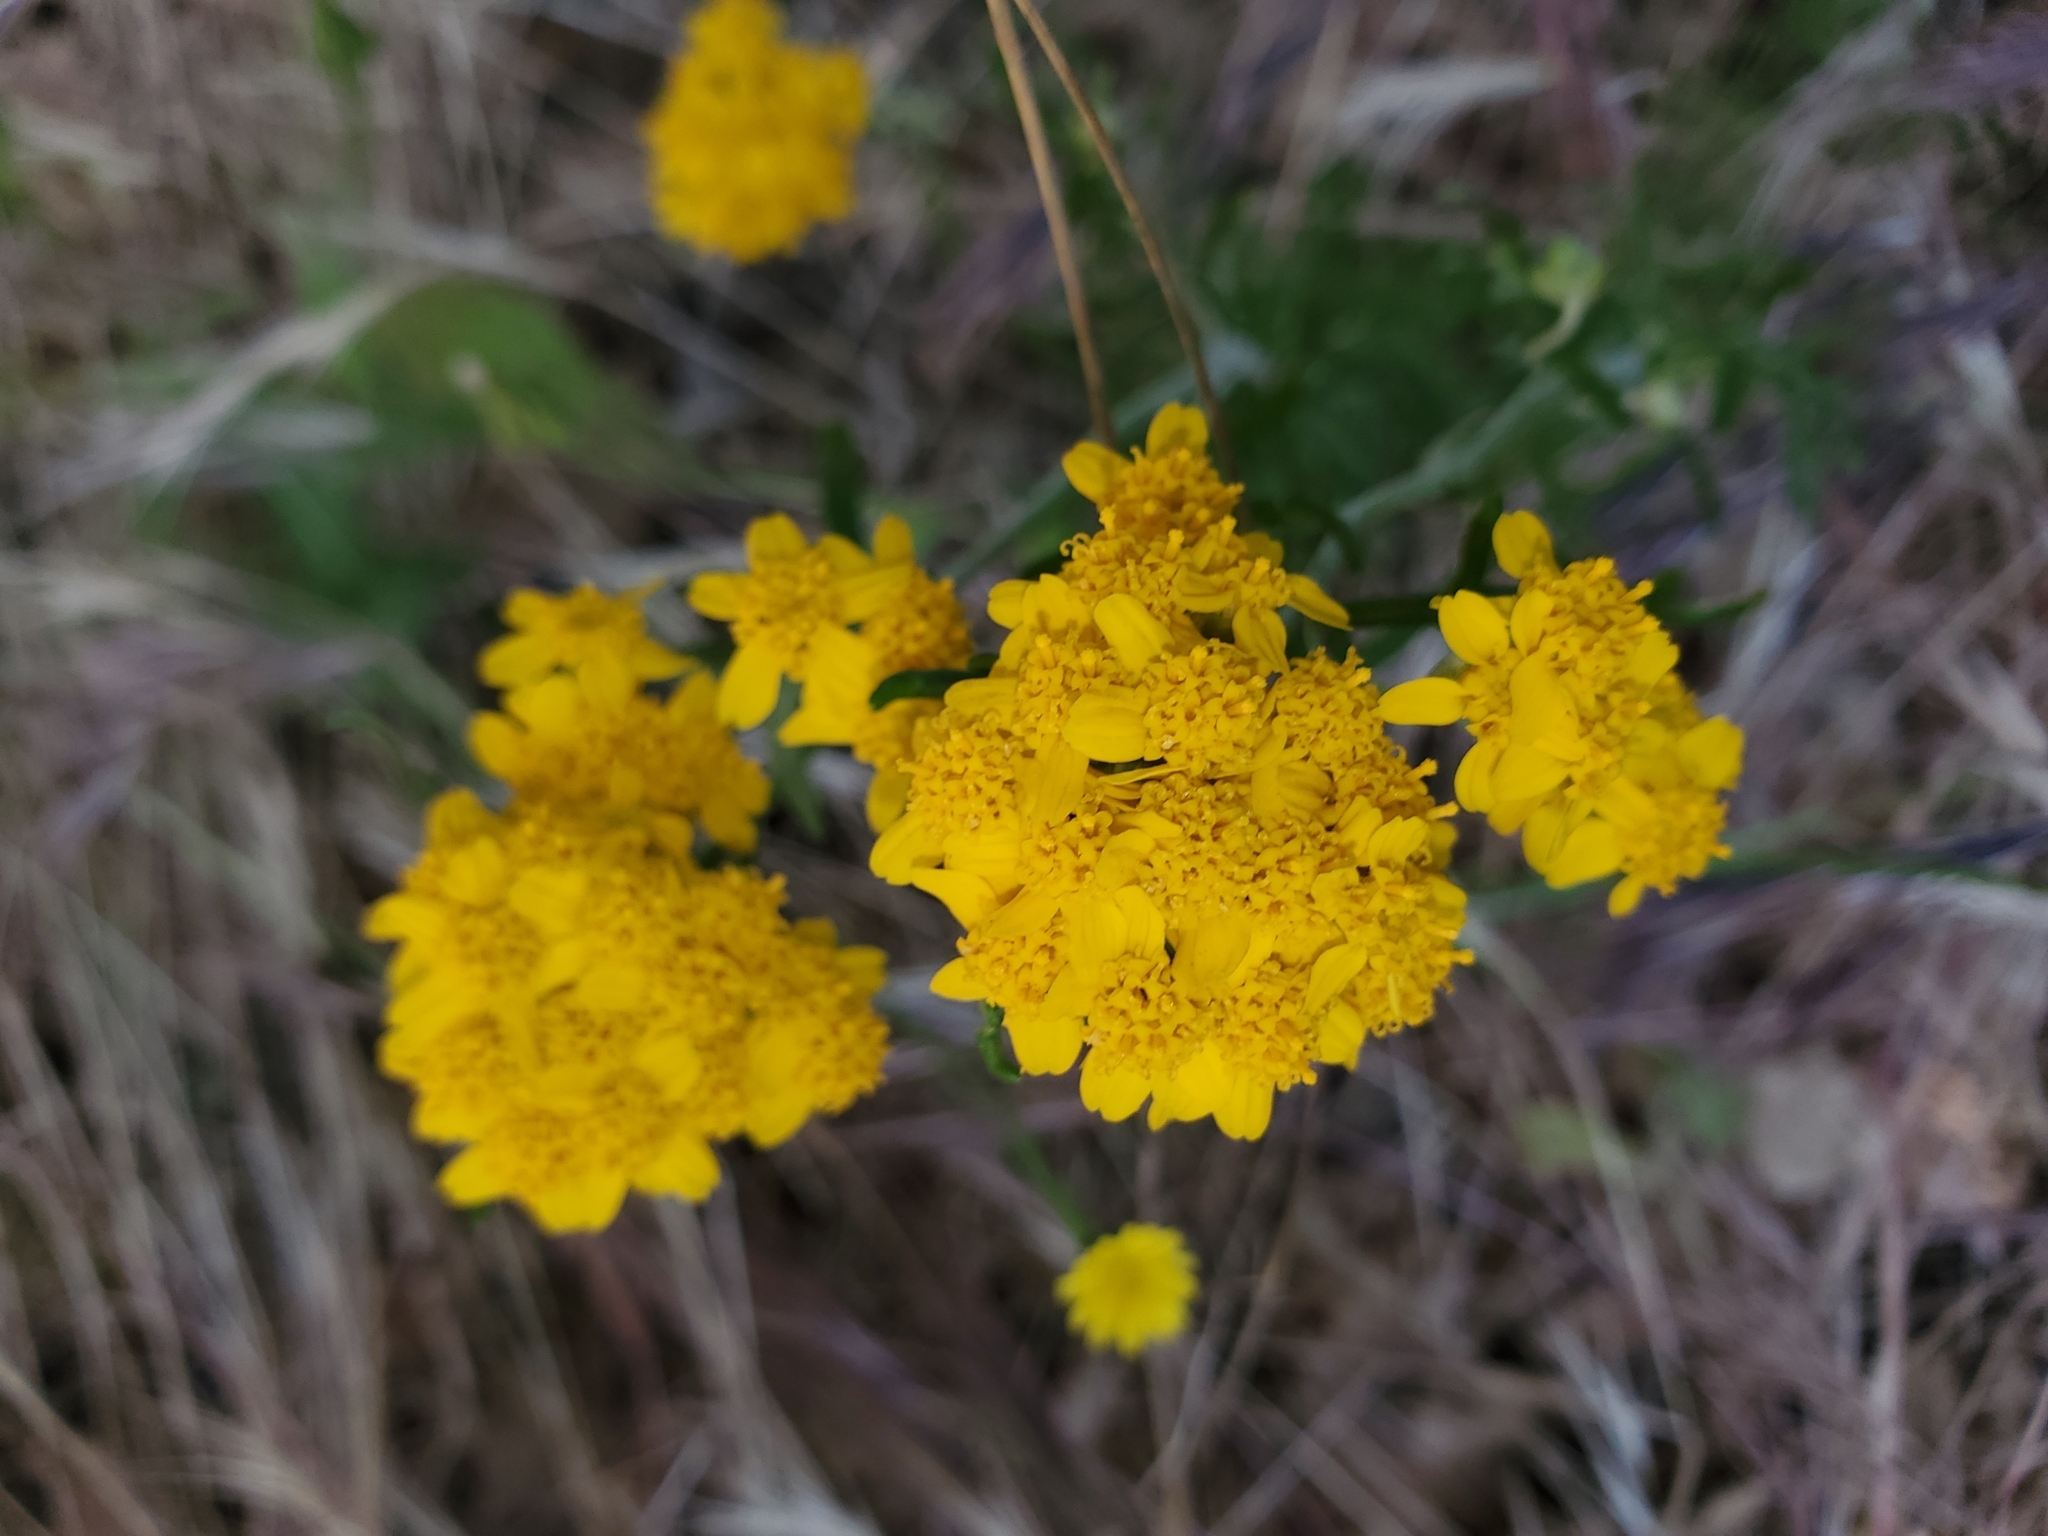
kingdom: Plantae
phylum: Tracheophyta
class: Magnoliopsida
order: Asterales
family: Asteraceae
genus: Eriophyllum
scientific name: Eriophyllum confertiflorum
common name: Golden-yarrow
